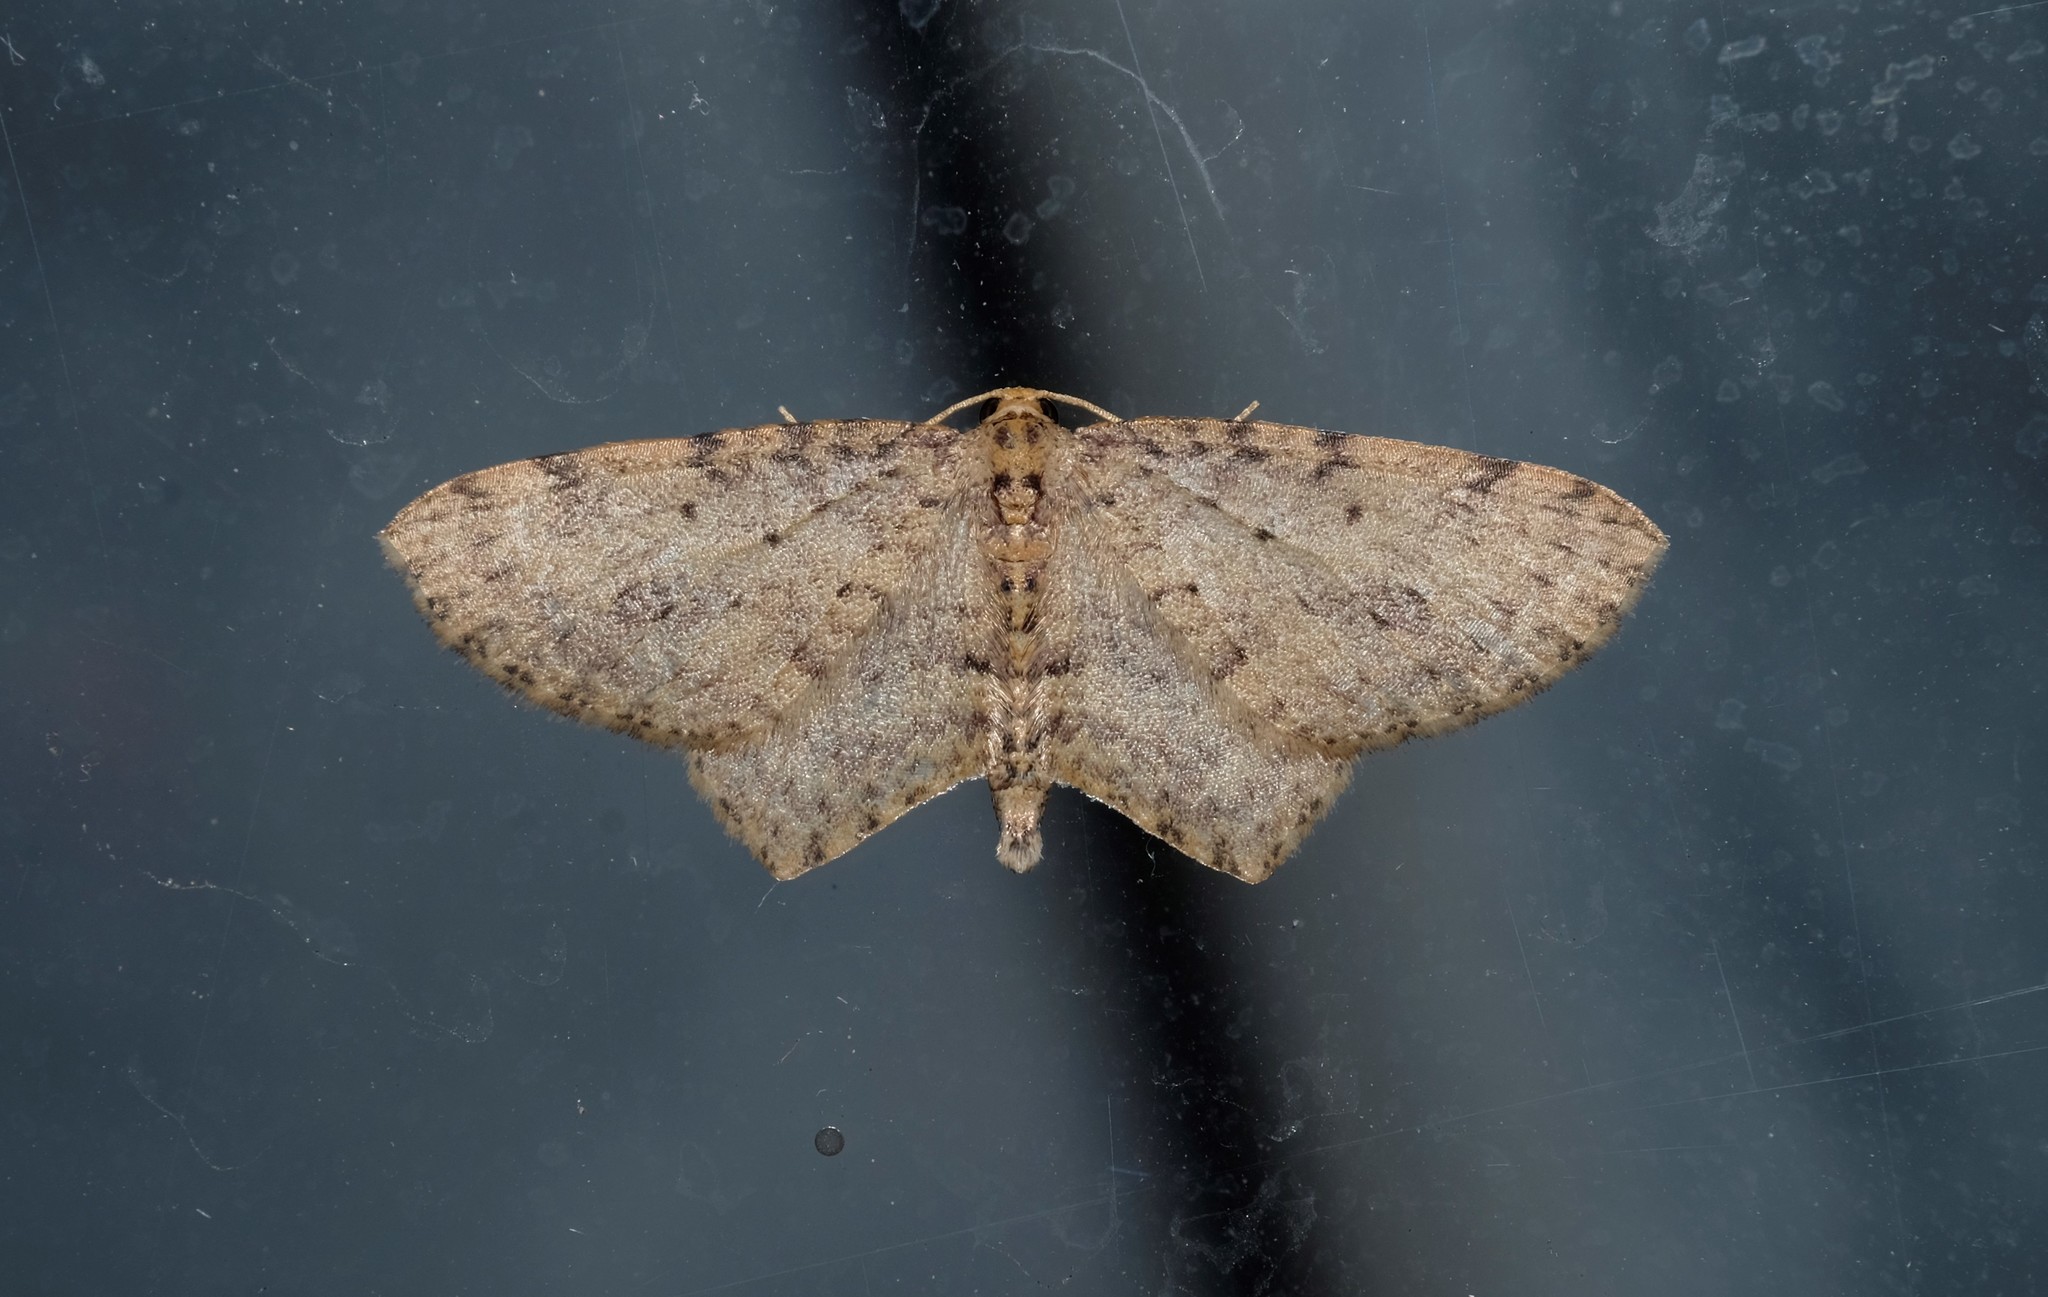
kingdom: Animalia
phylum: Arthropoda
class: Insecta
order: Lepidoptera
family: Geometridae
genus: Poecilasthena
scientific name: Poecilasthena scoliota
